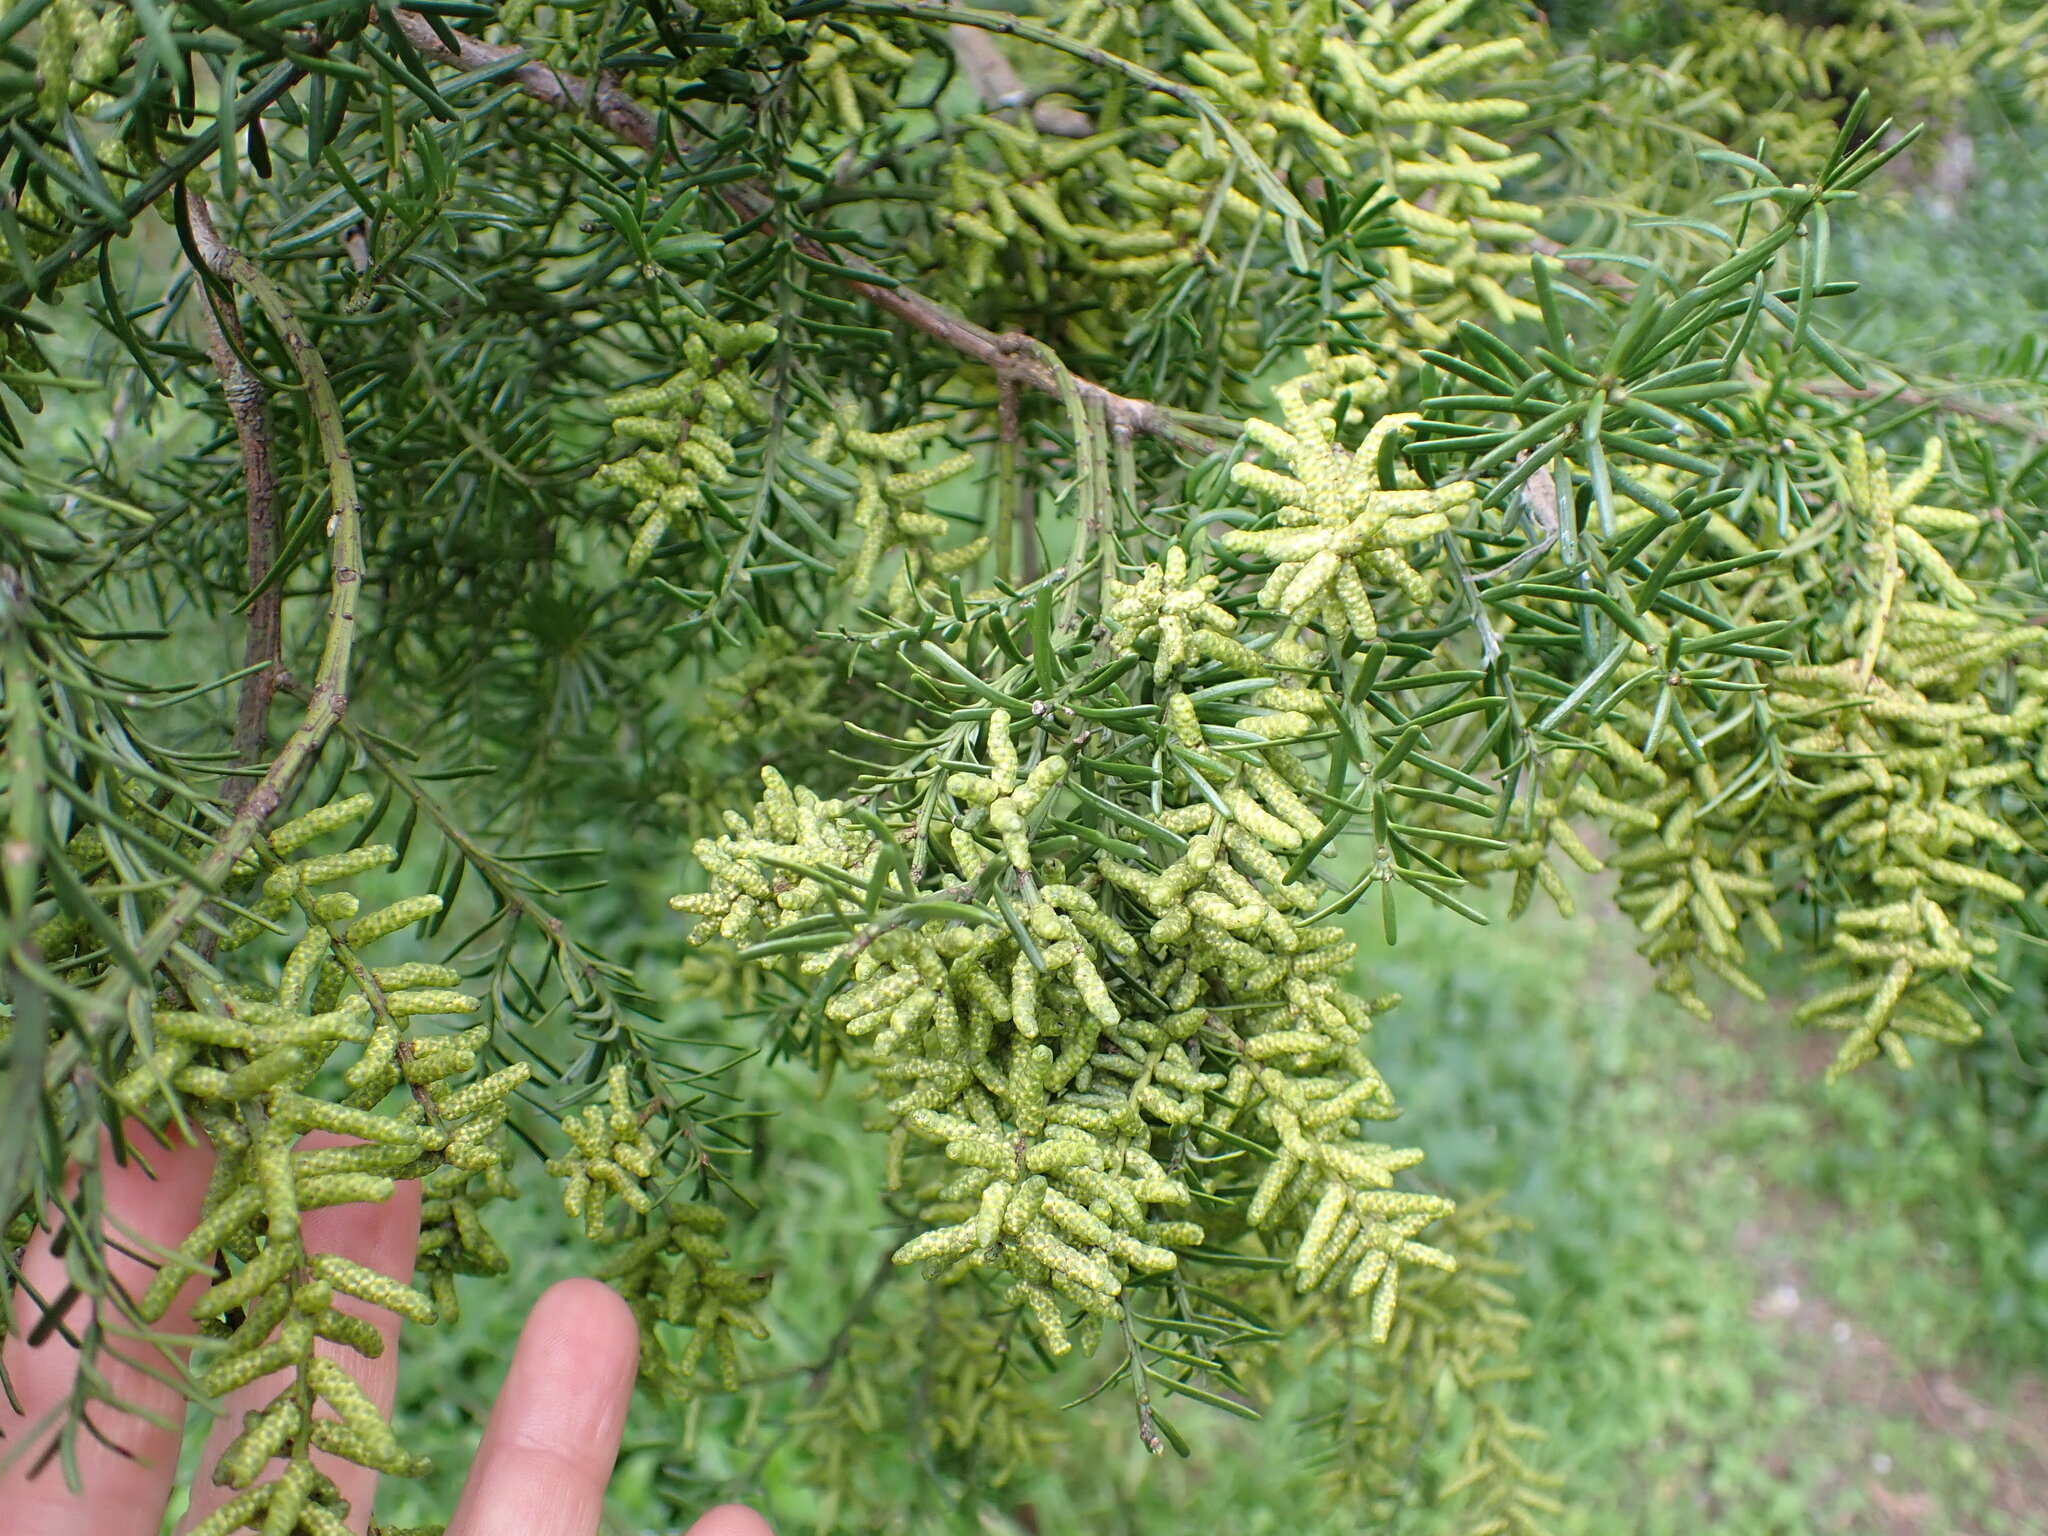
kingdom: Plantae
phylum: Tracheophyta
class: Pinopsida
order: Pinales
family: Podocarpaceae
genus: Prumnopitys
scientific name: Prumnopitys taxifolia
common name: Matai
